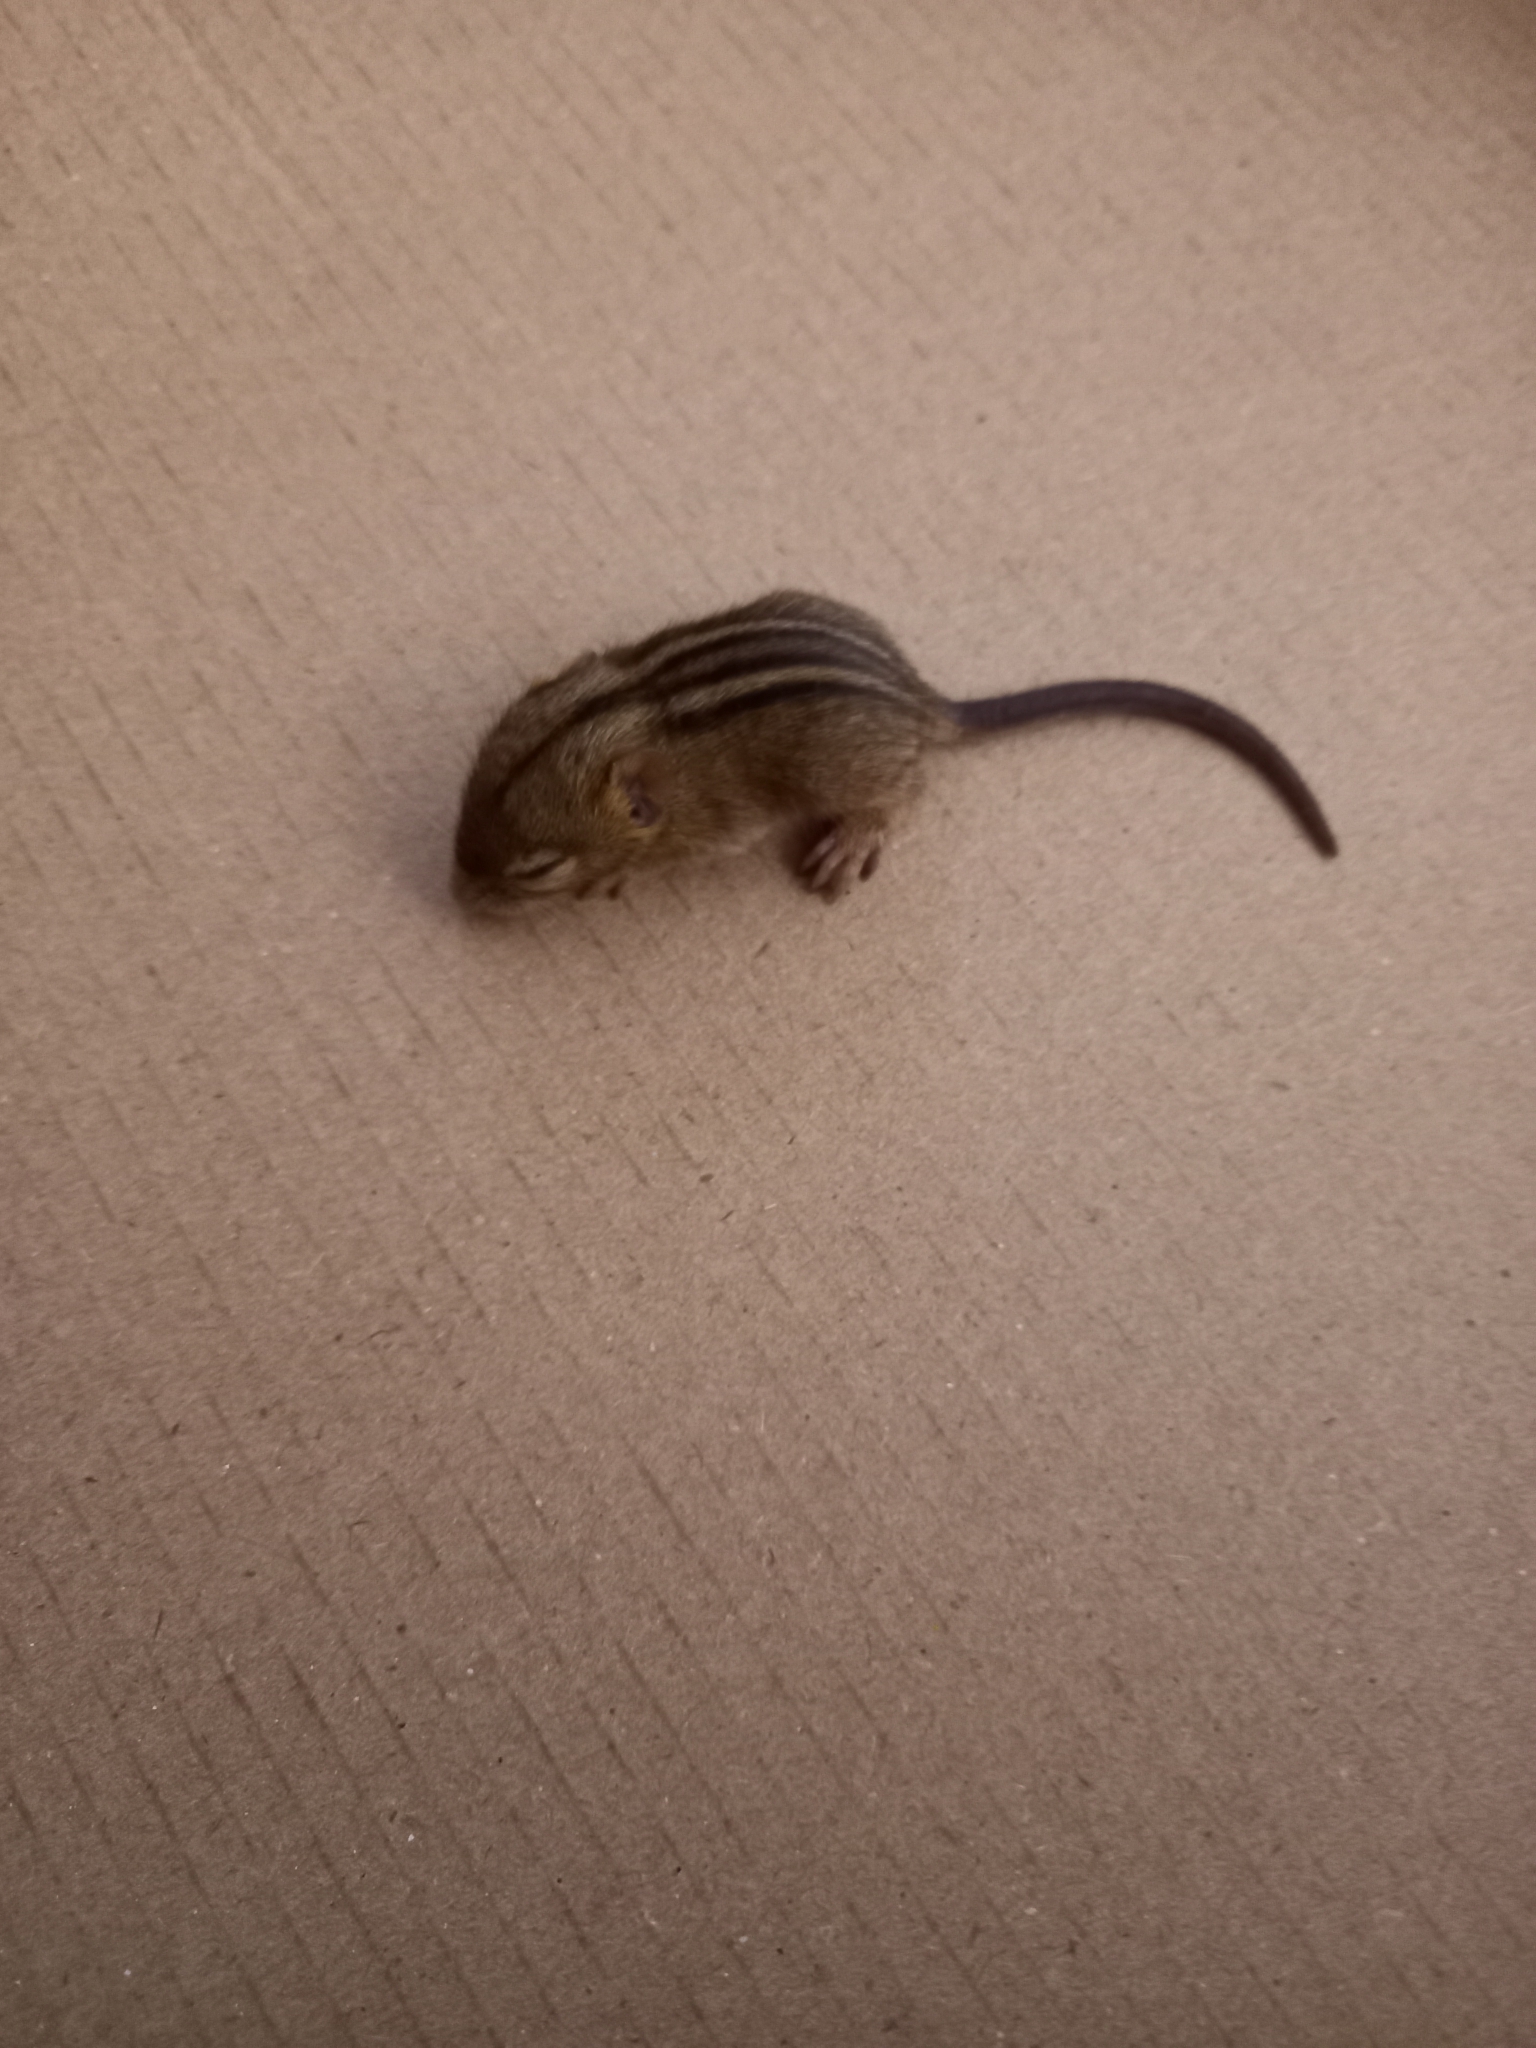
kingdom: Animalia
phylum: Chordata
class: Mammalia
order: Rodentia
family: Muridae
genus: Rhabdomys
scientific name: Rhabdomys pumilio
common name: Xeric four-striped grass rat
